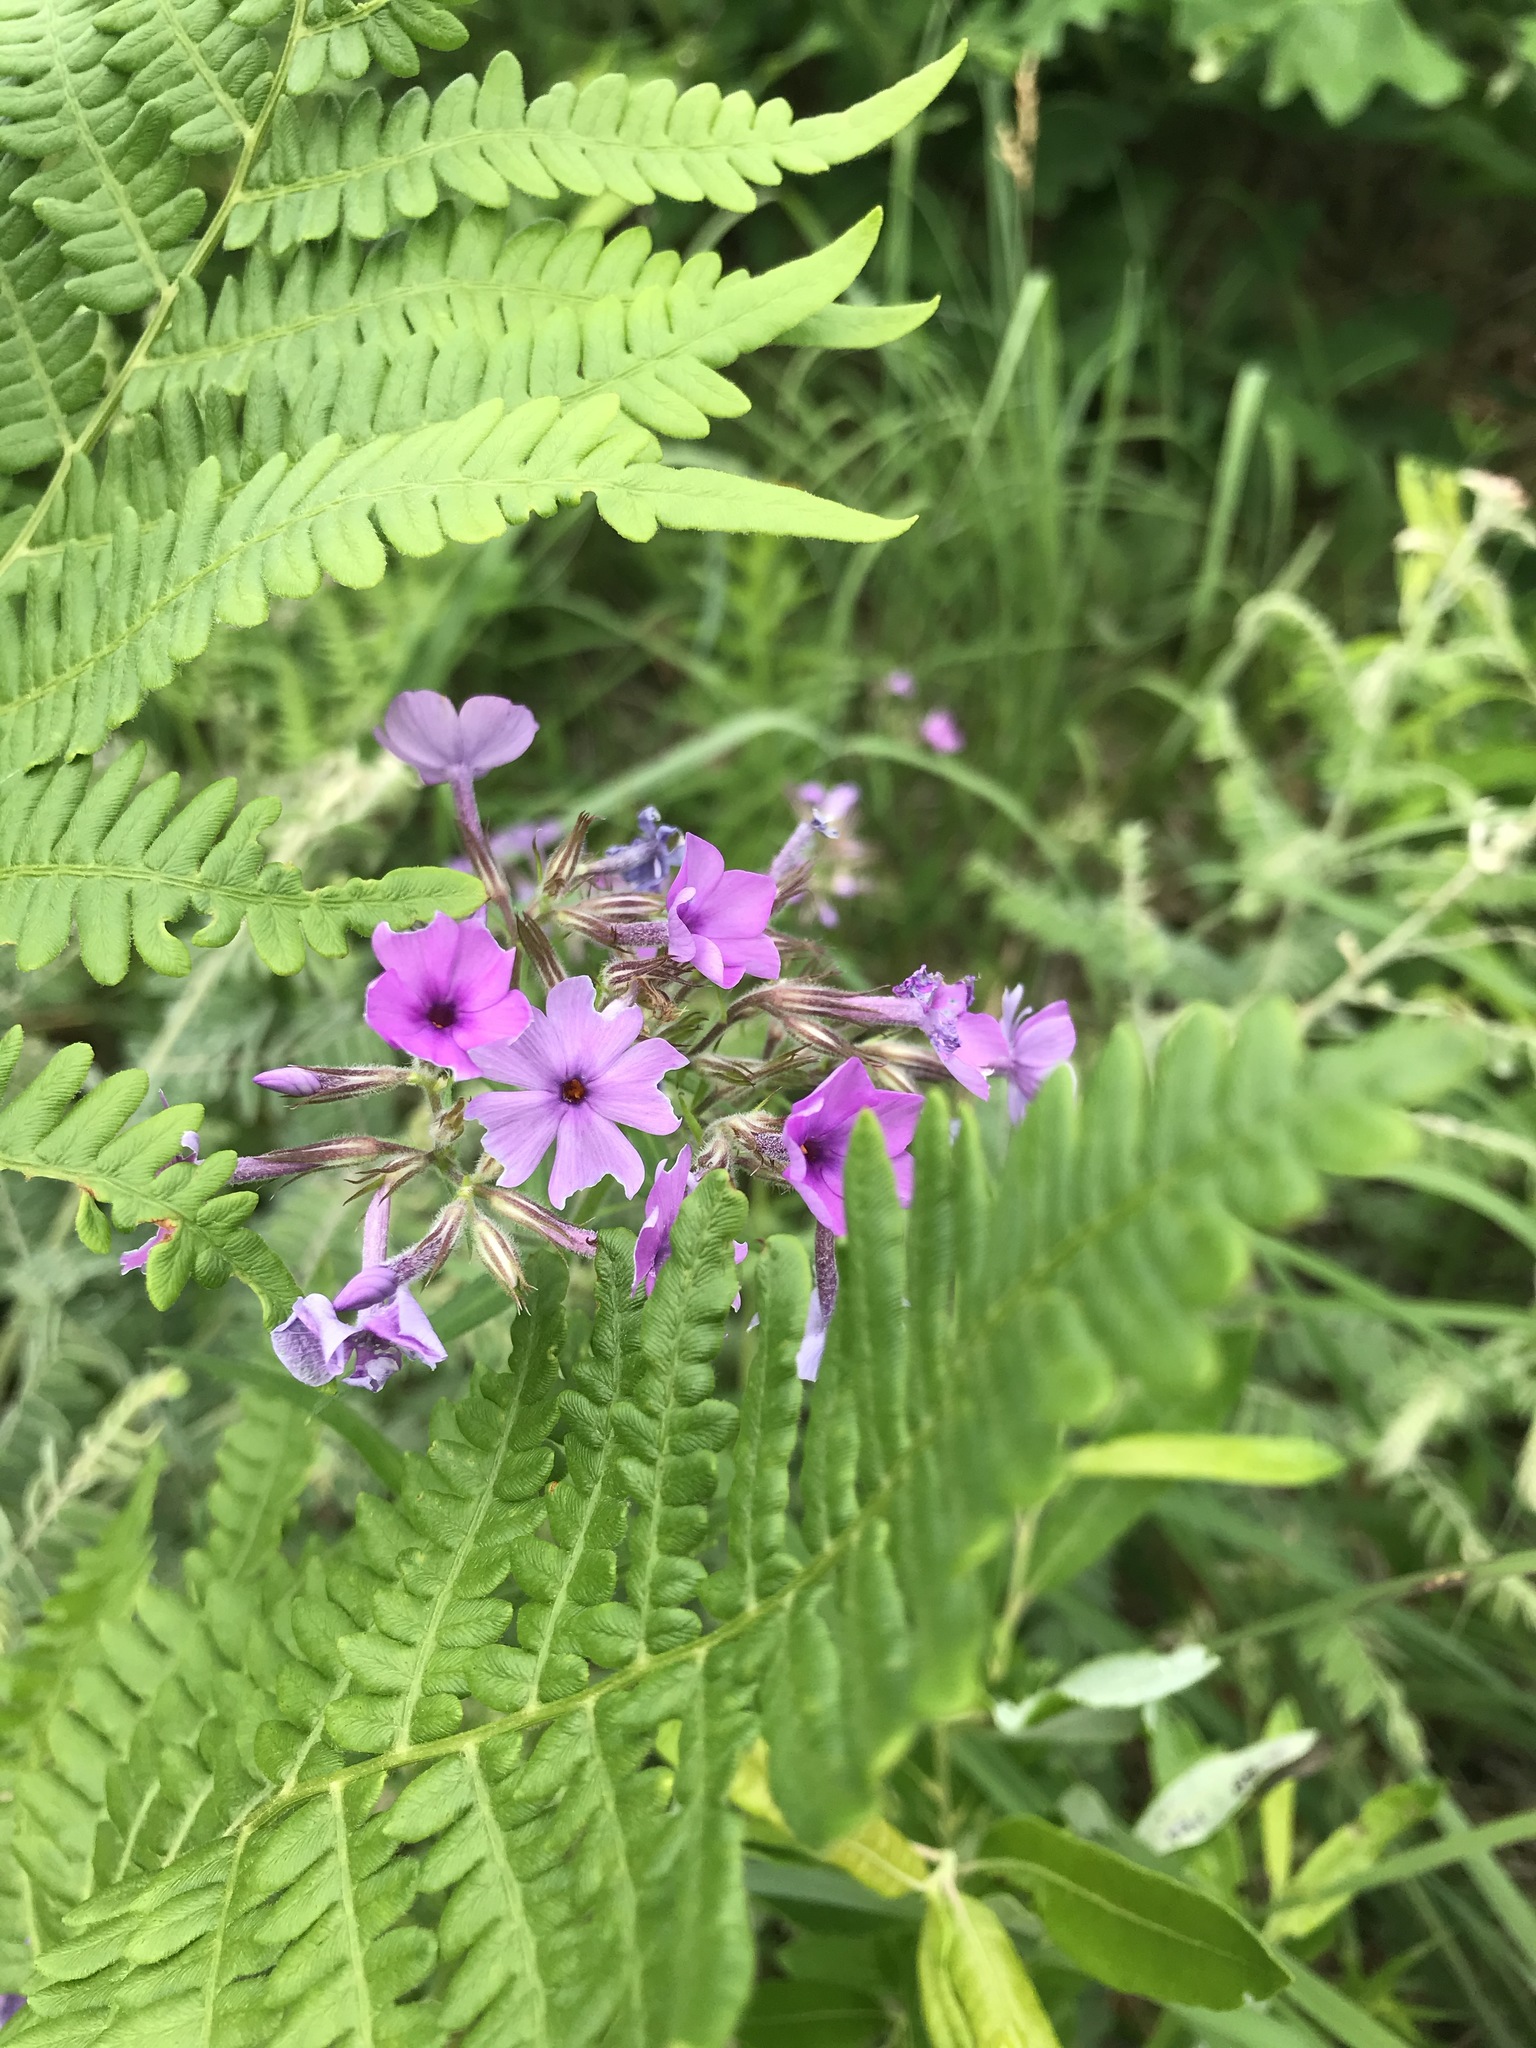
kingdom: Plantae
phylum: Tracheophyta
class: Magnoliopsida
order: Ericales
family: Polemoniaceae
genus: Phlox
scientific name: Phlox pilosa
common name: Prairie phlox
